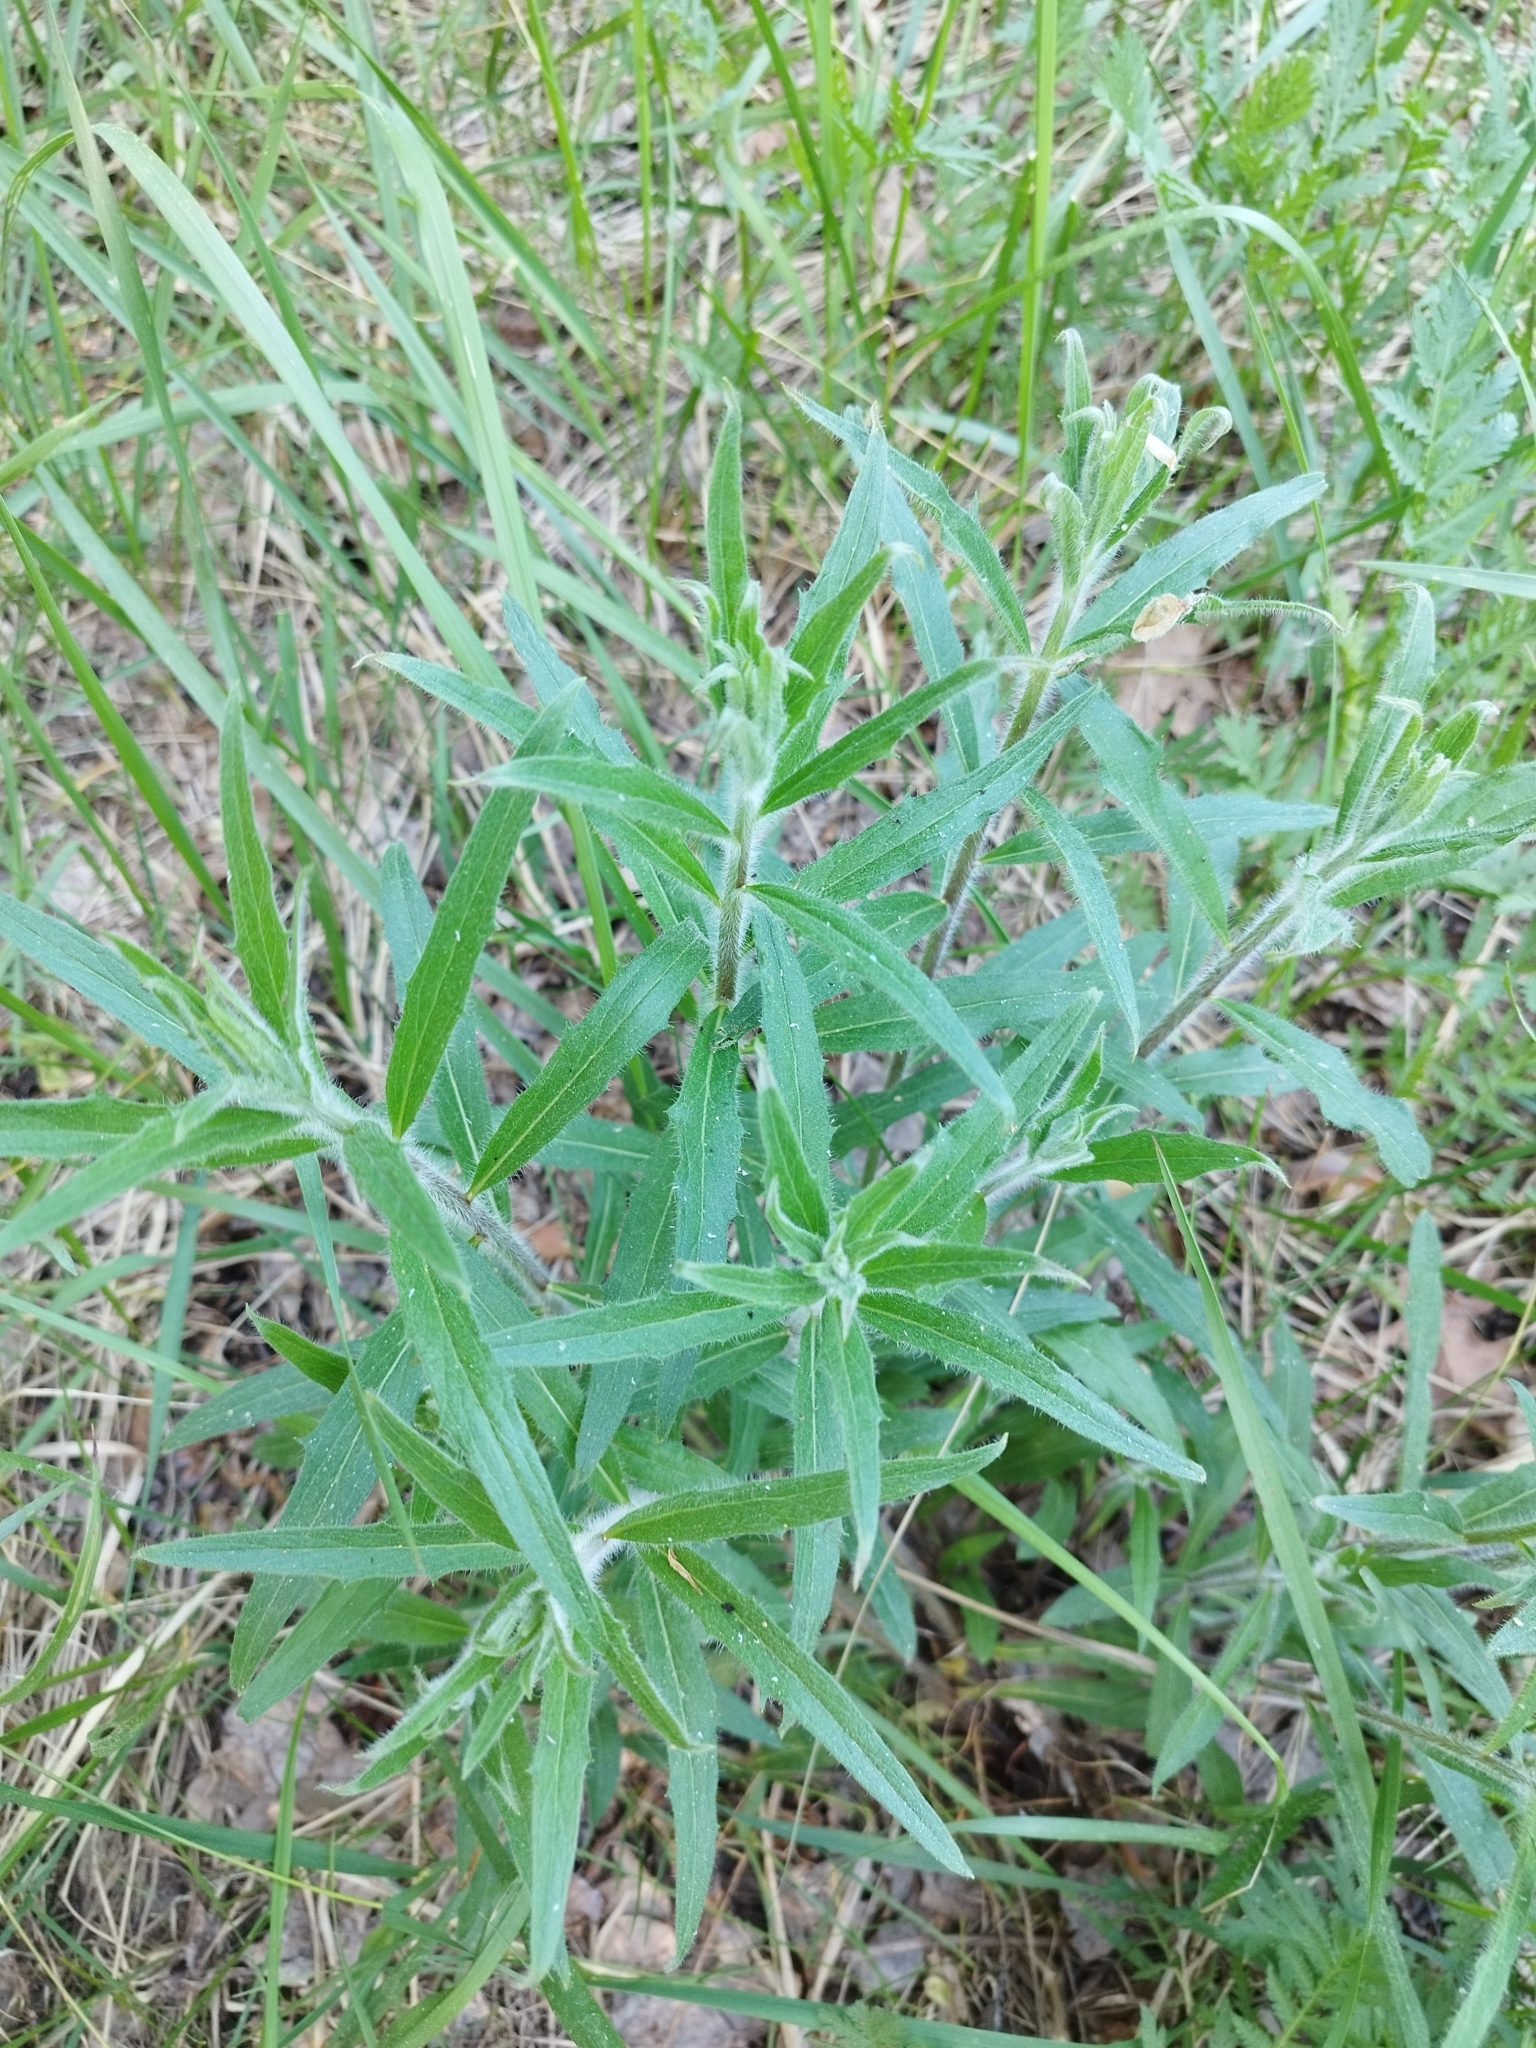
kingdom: Plantae
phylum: Tracheophyta
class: Magnoliopsida
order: Asterales
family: Asteraceae
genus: Hieracium
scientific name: Hieracium umbellatum
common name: Northern hawkweed
